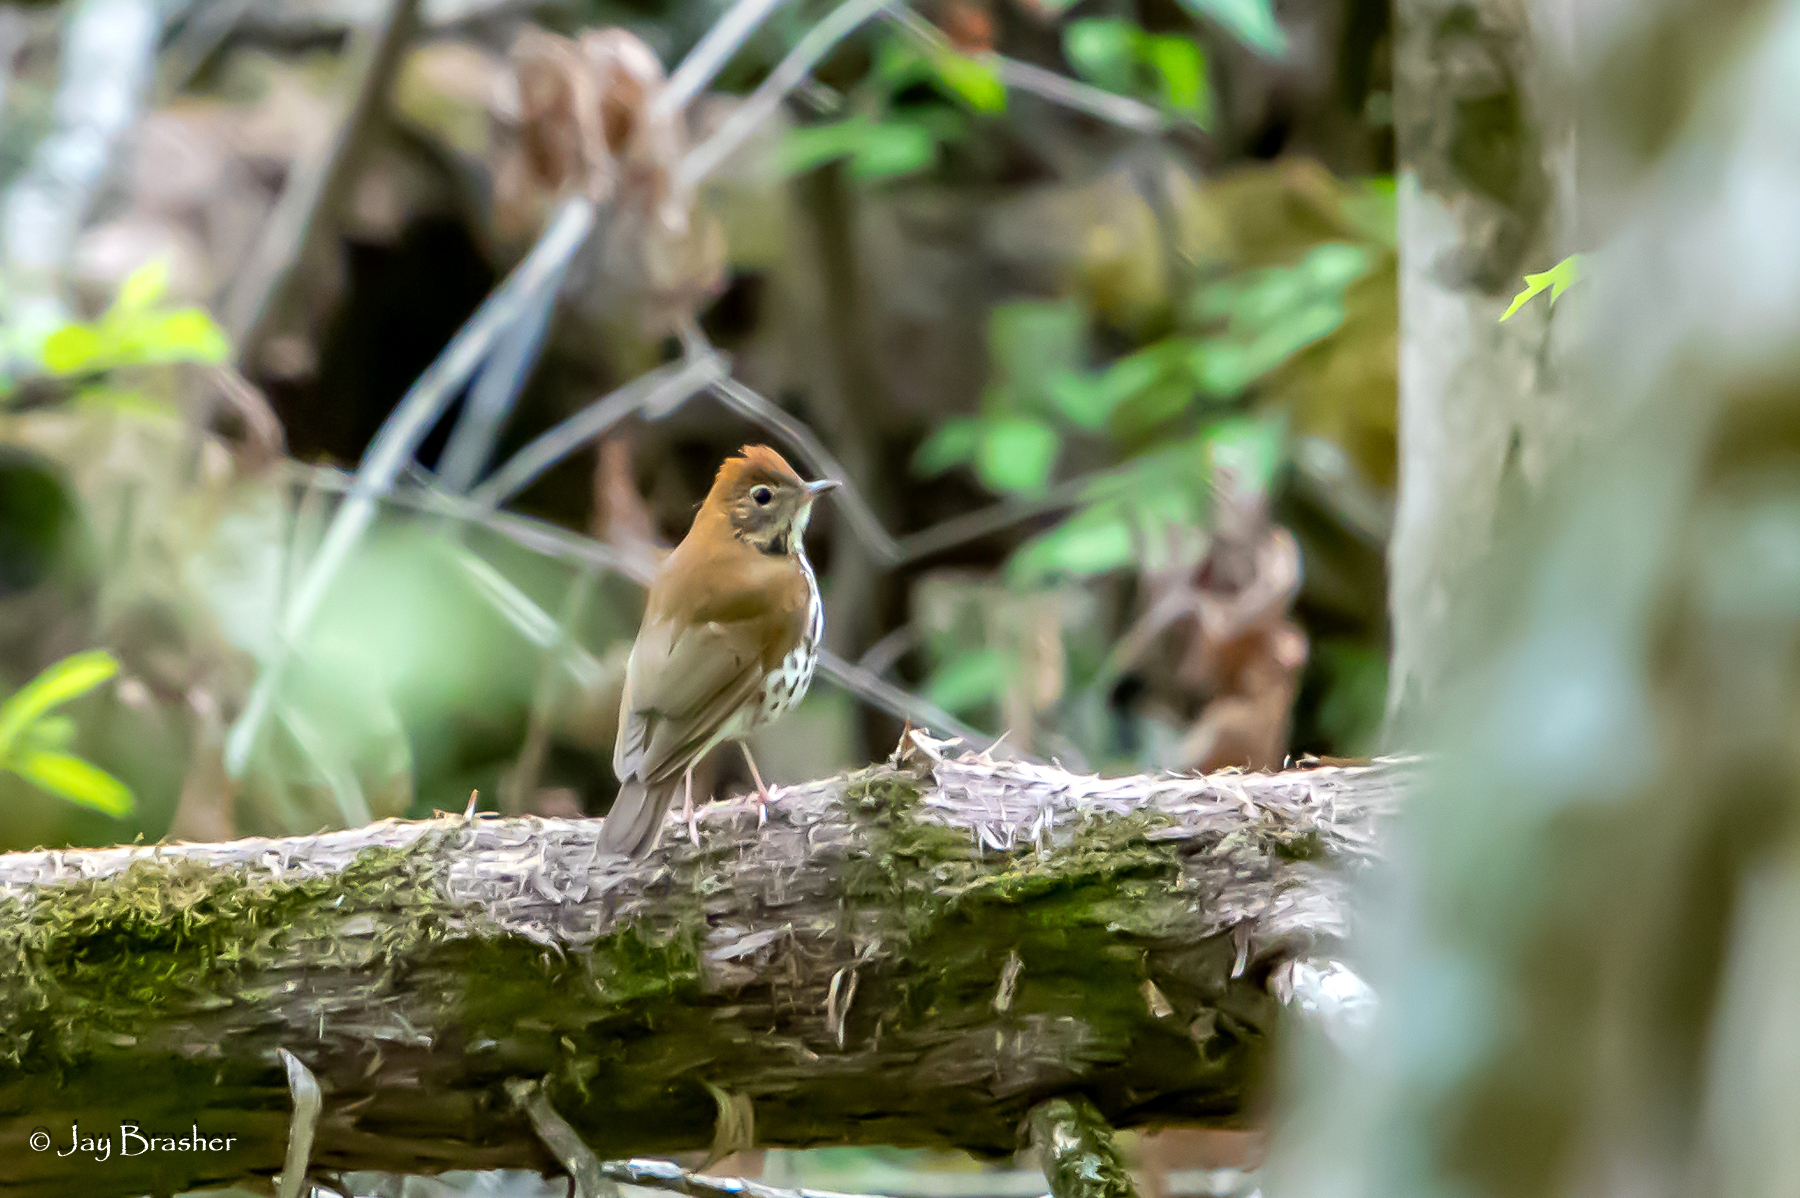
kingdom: Animalia
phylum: Chordata
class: Aves
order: Passeriformes
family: Turdidae
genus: Hylocichla
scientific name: Hylocichla mustelina
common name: Wood thrush
